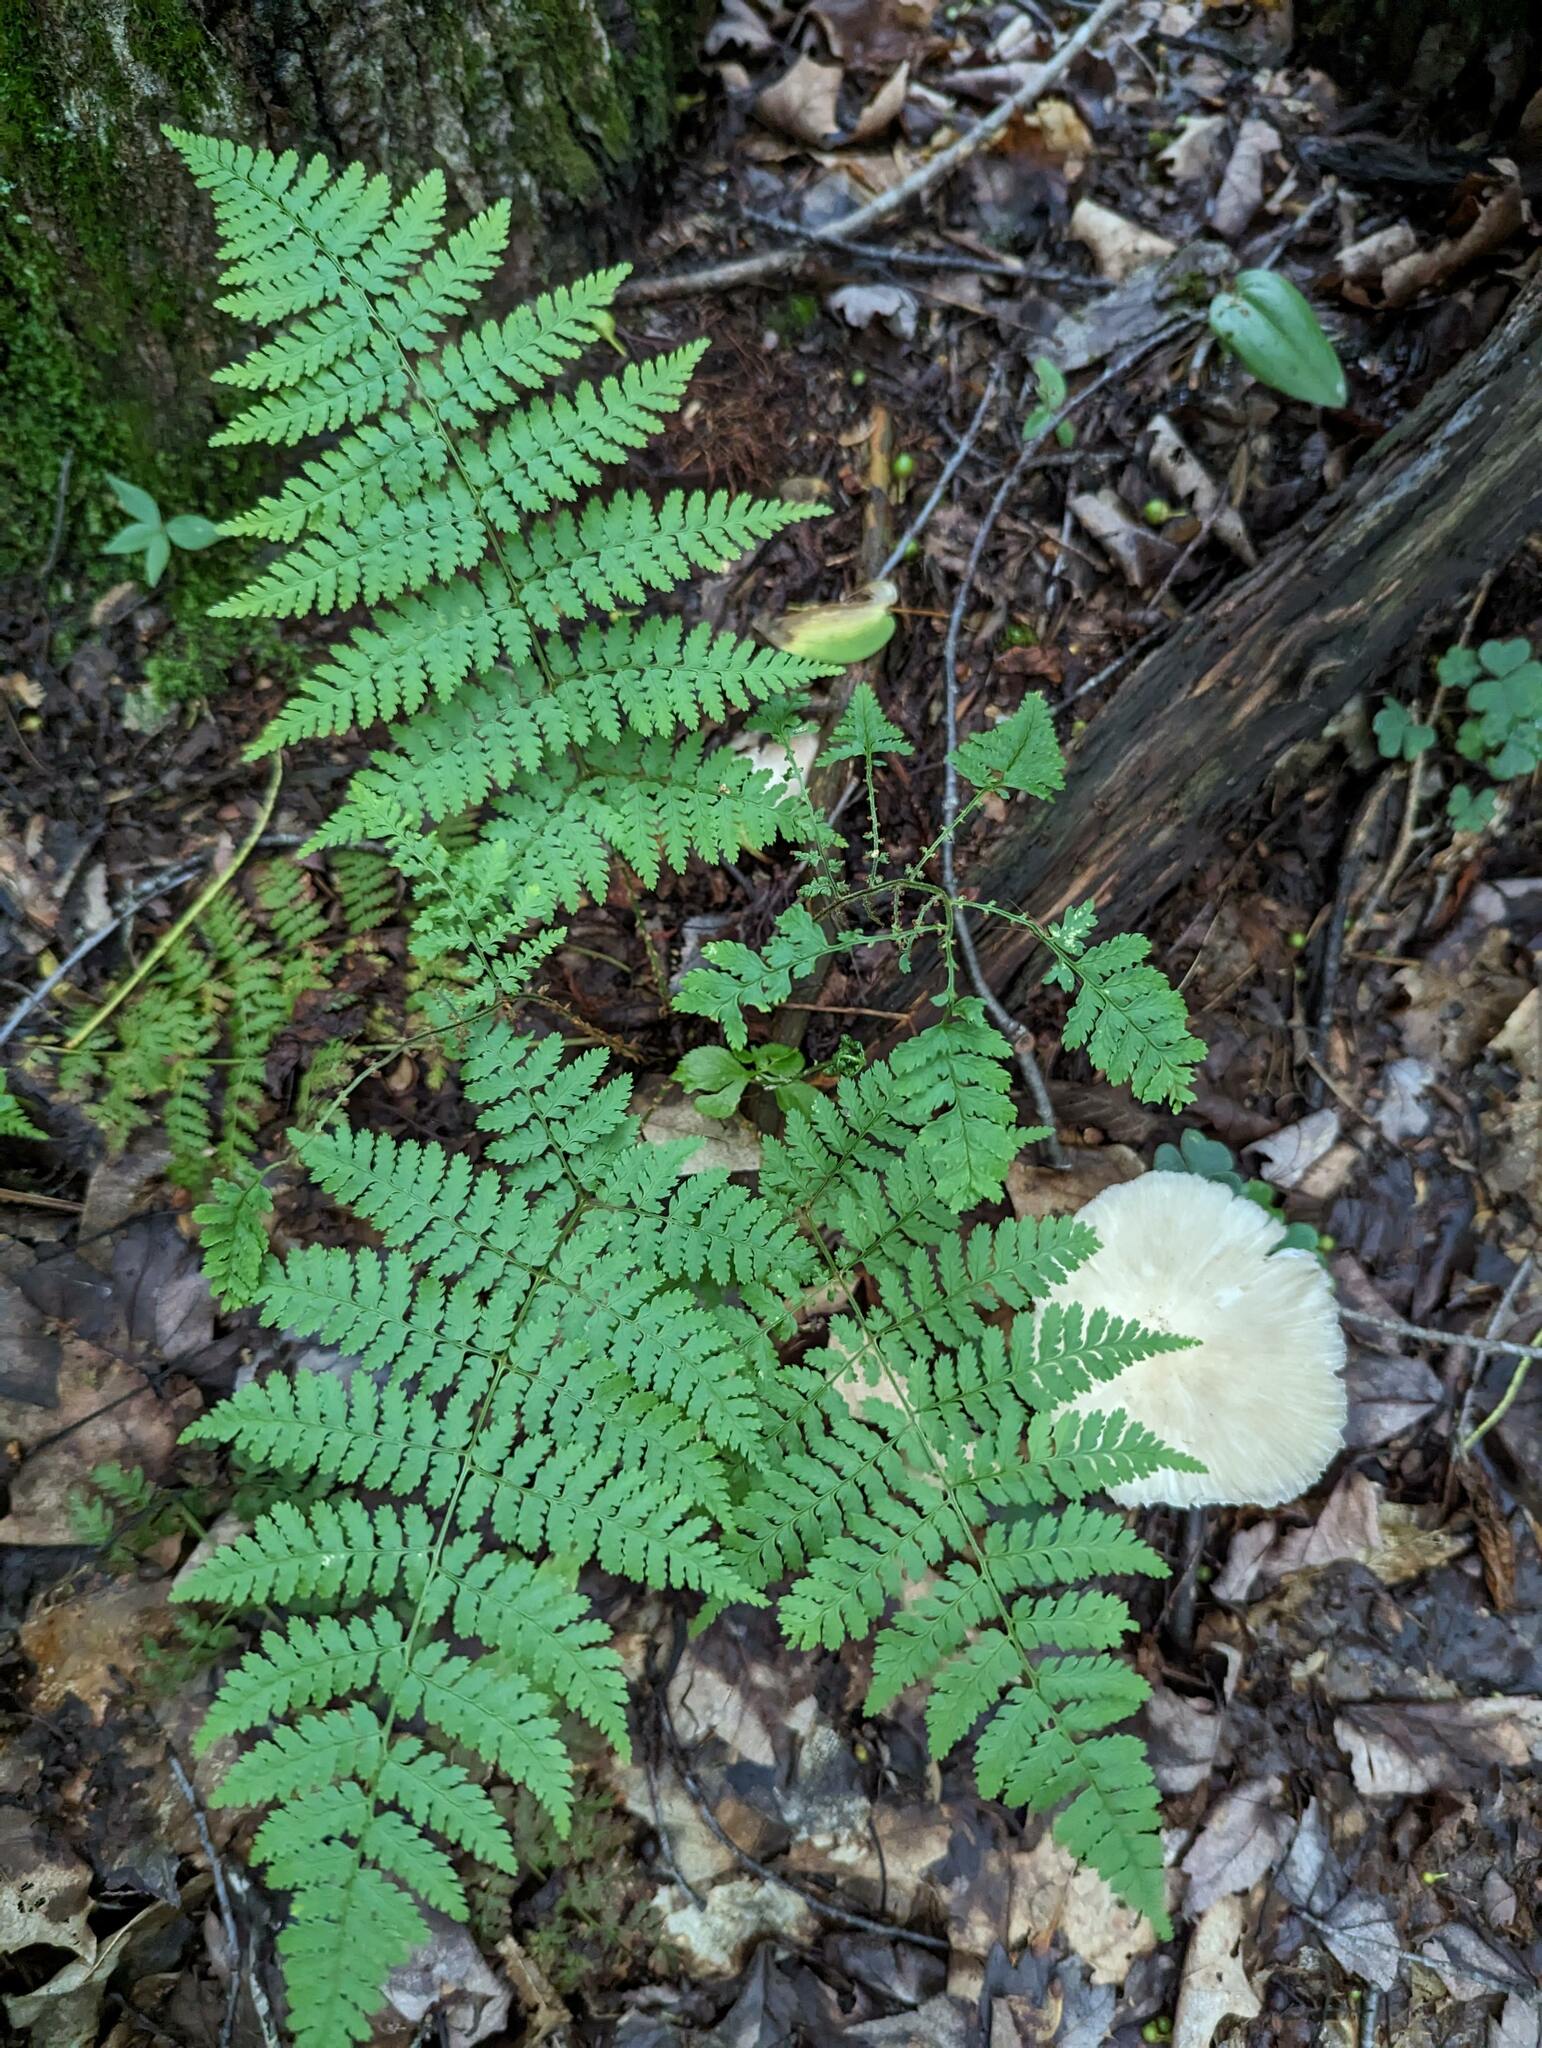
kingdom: Plantae
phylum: Tracheophyta
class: Polypodiopsida
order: Polypodiales
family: Dryopteridaceae
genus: Dryopteris
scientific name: Dryopteris intermedia
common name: Evergreen wood fern
